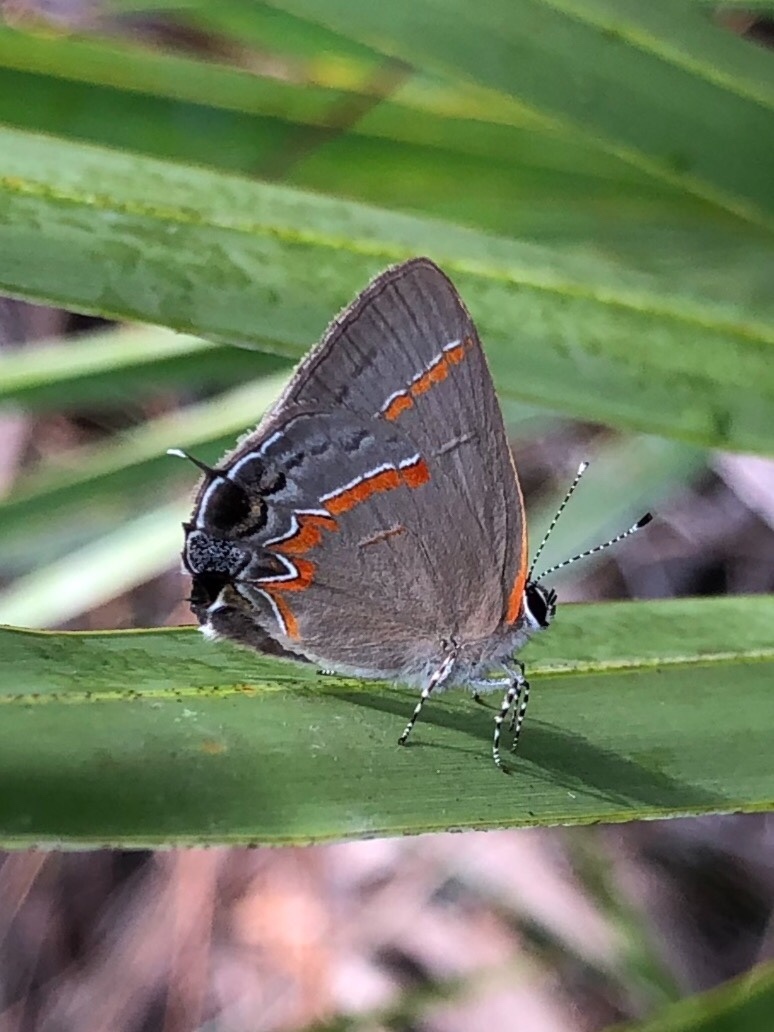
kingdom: Animalia
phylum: Arthropoda
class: Insecta
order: Lepidoptera
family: Lycaenidae
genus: Calycopis
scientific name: Calycopis cecrops
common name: Red-banded hairstreak
